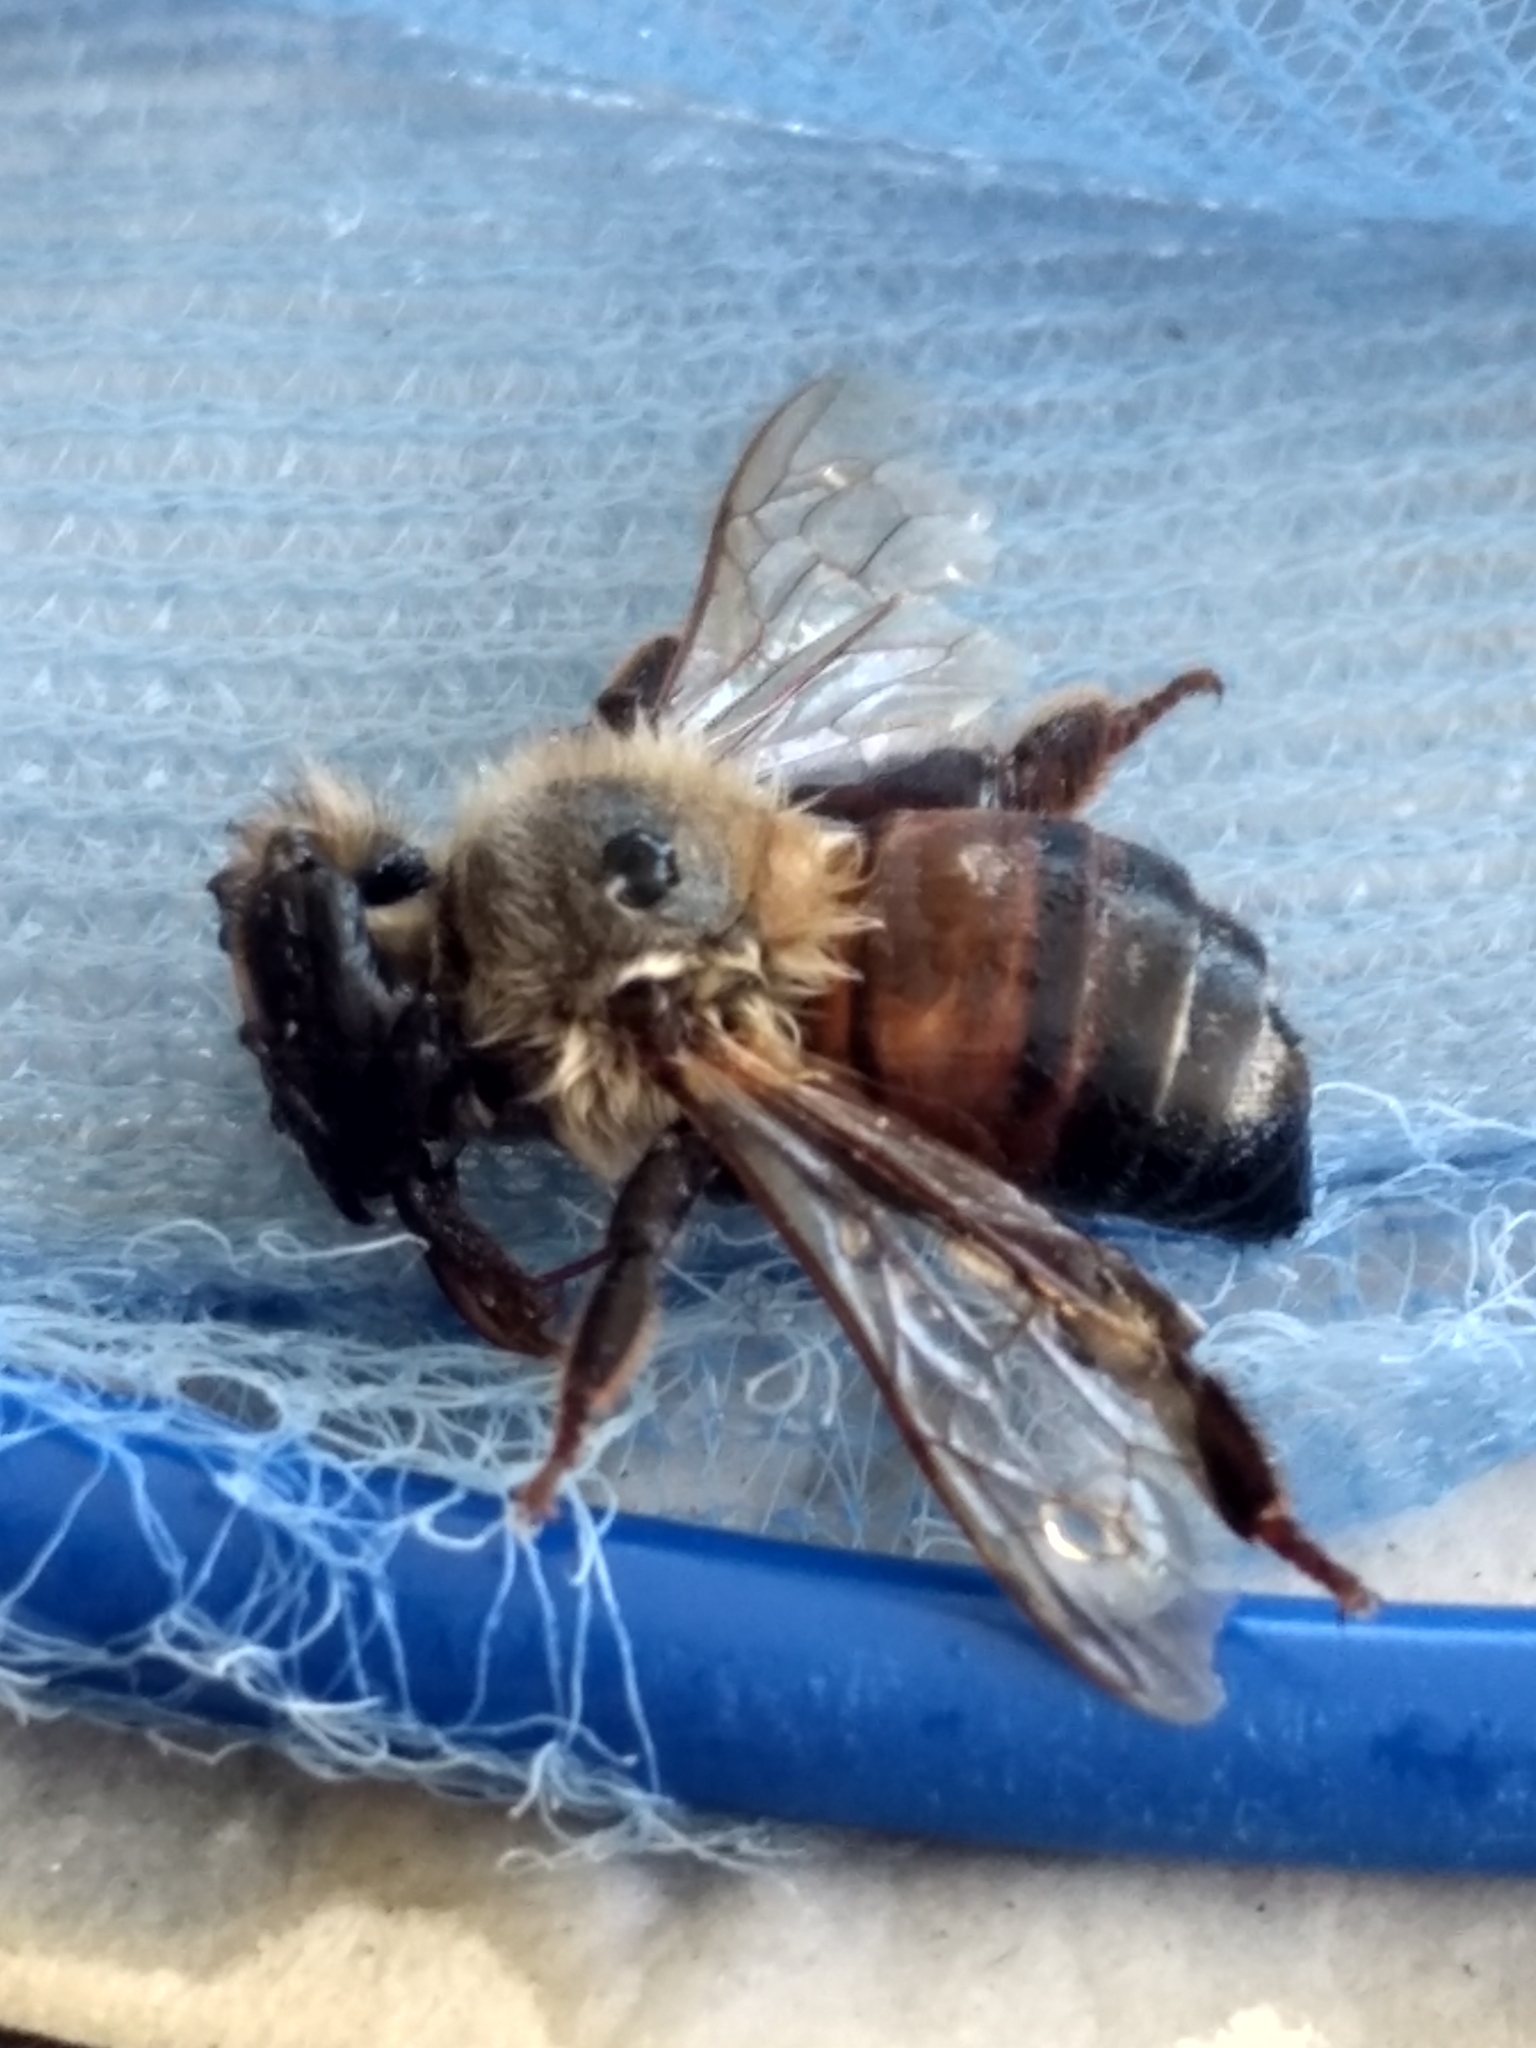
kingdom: Animalia
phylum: Arthropoda
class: Insecta
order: Hymenoptera
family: Apidae
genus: Apis
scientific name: Apis mellifera
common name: Honey bee
